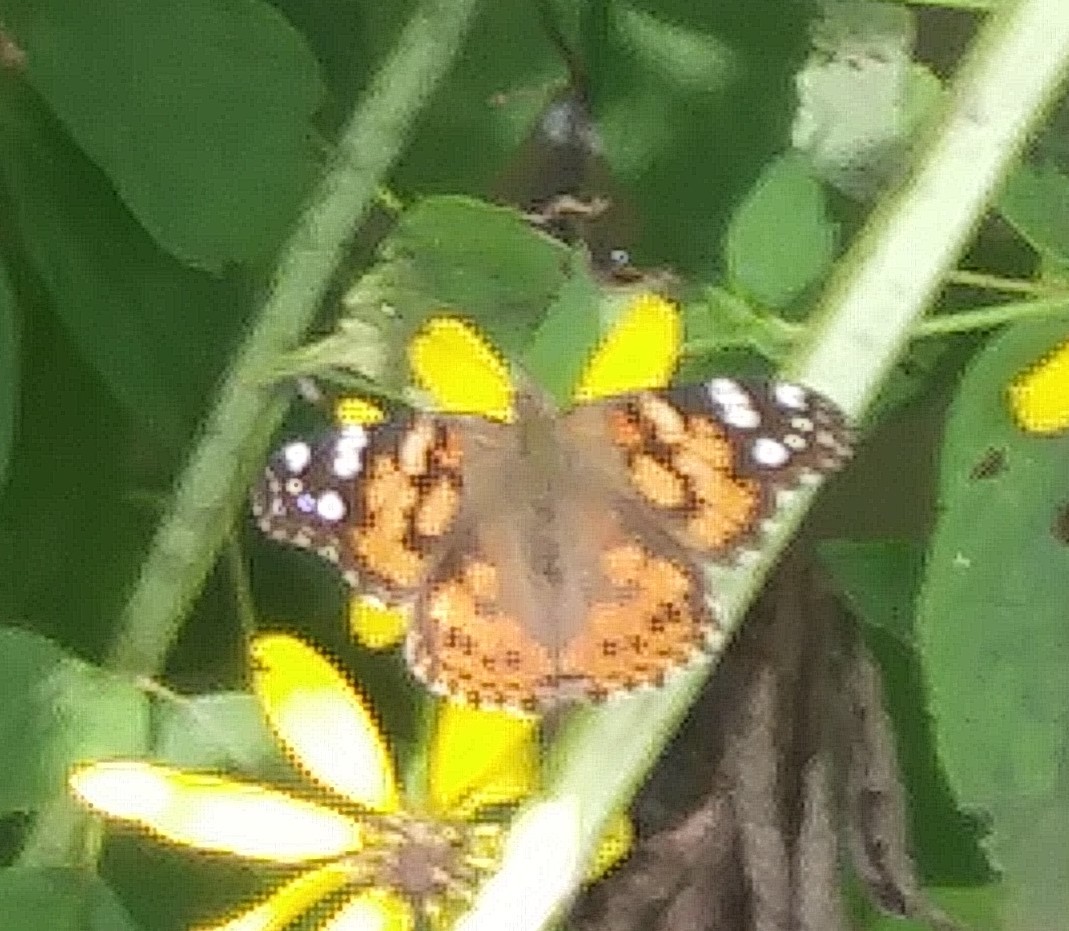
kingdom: Animalia
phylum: Arthropoda
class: Insecta
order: Lepidoptera
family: Nymphalidae
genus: Vanessa
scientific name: Vanessa cardui
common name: Painted lady
